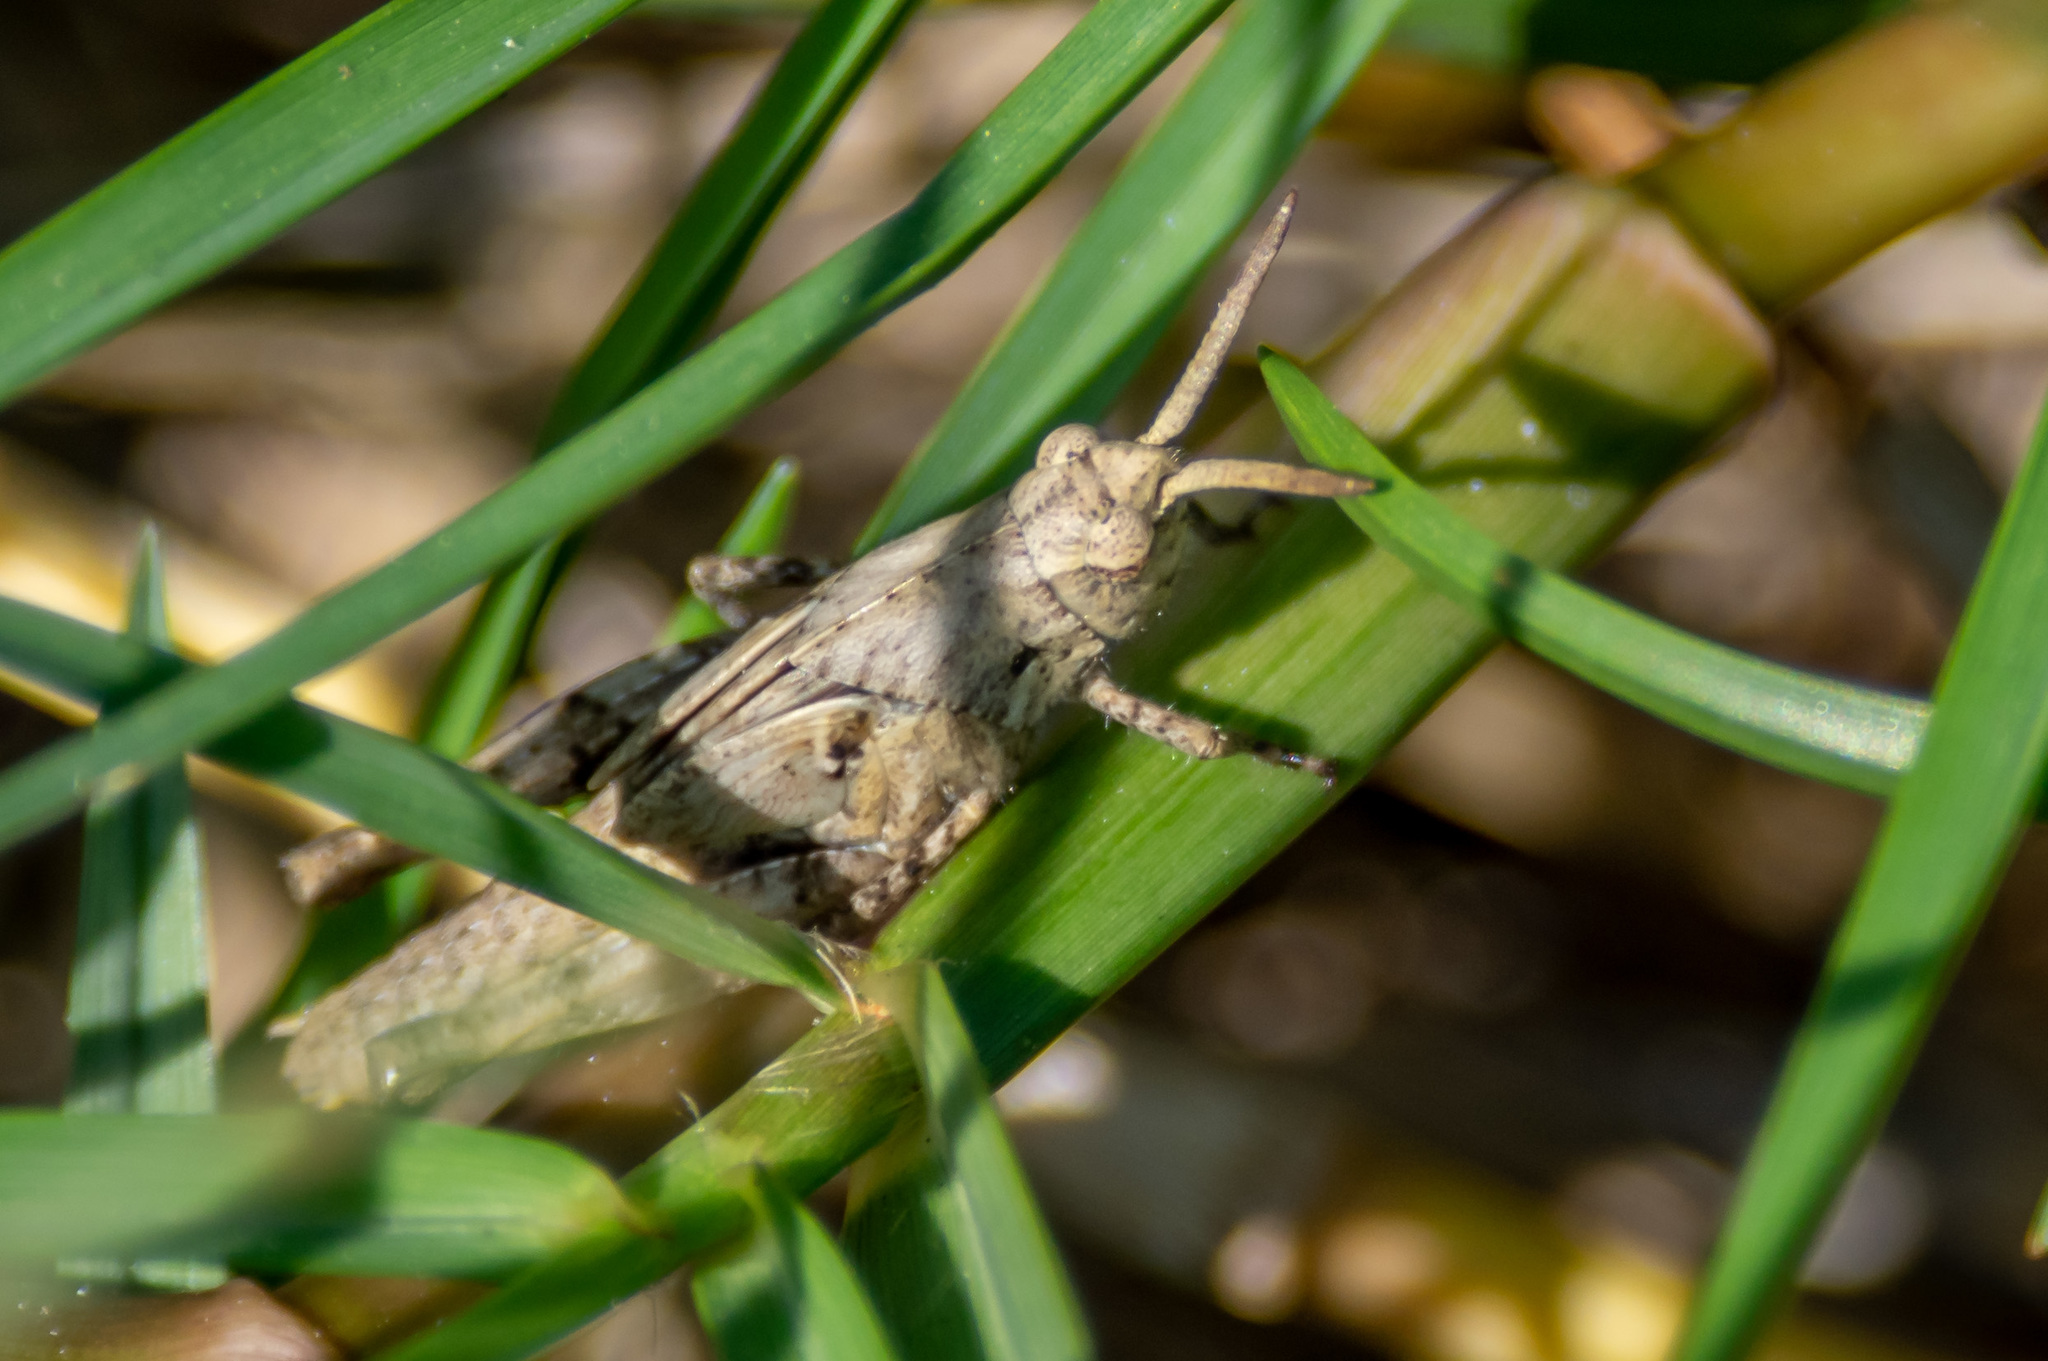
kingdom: Animalia
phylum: Arthropoda
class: Insecta
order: Orthoptera
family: Acrididae
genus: Chortophaga
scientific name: Chortophaga australior
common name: Southern green-striped grasshopper
